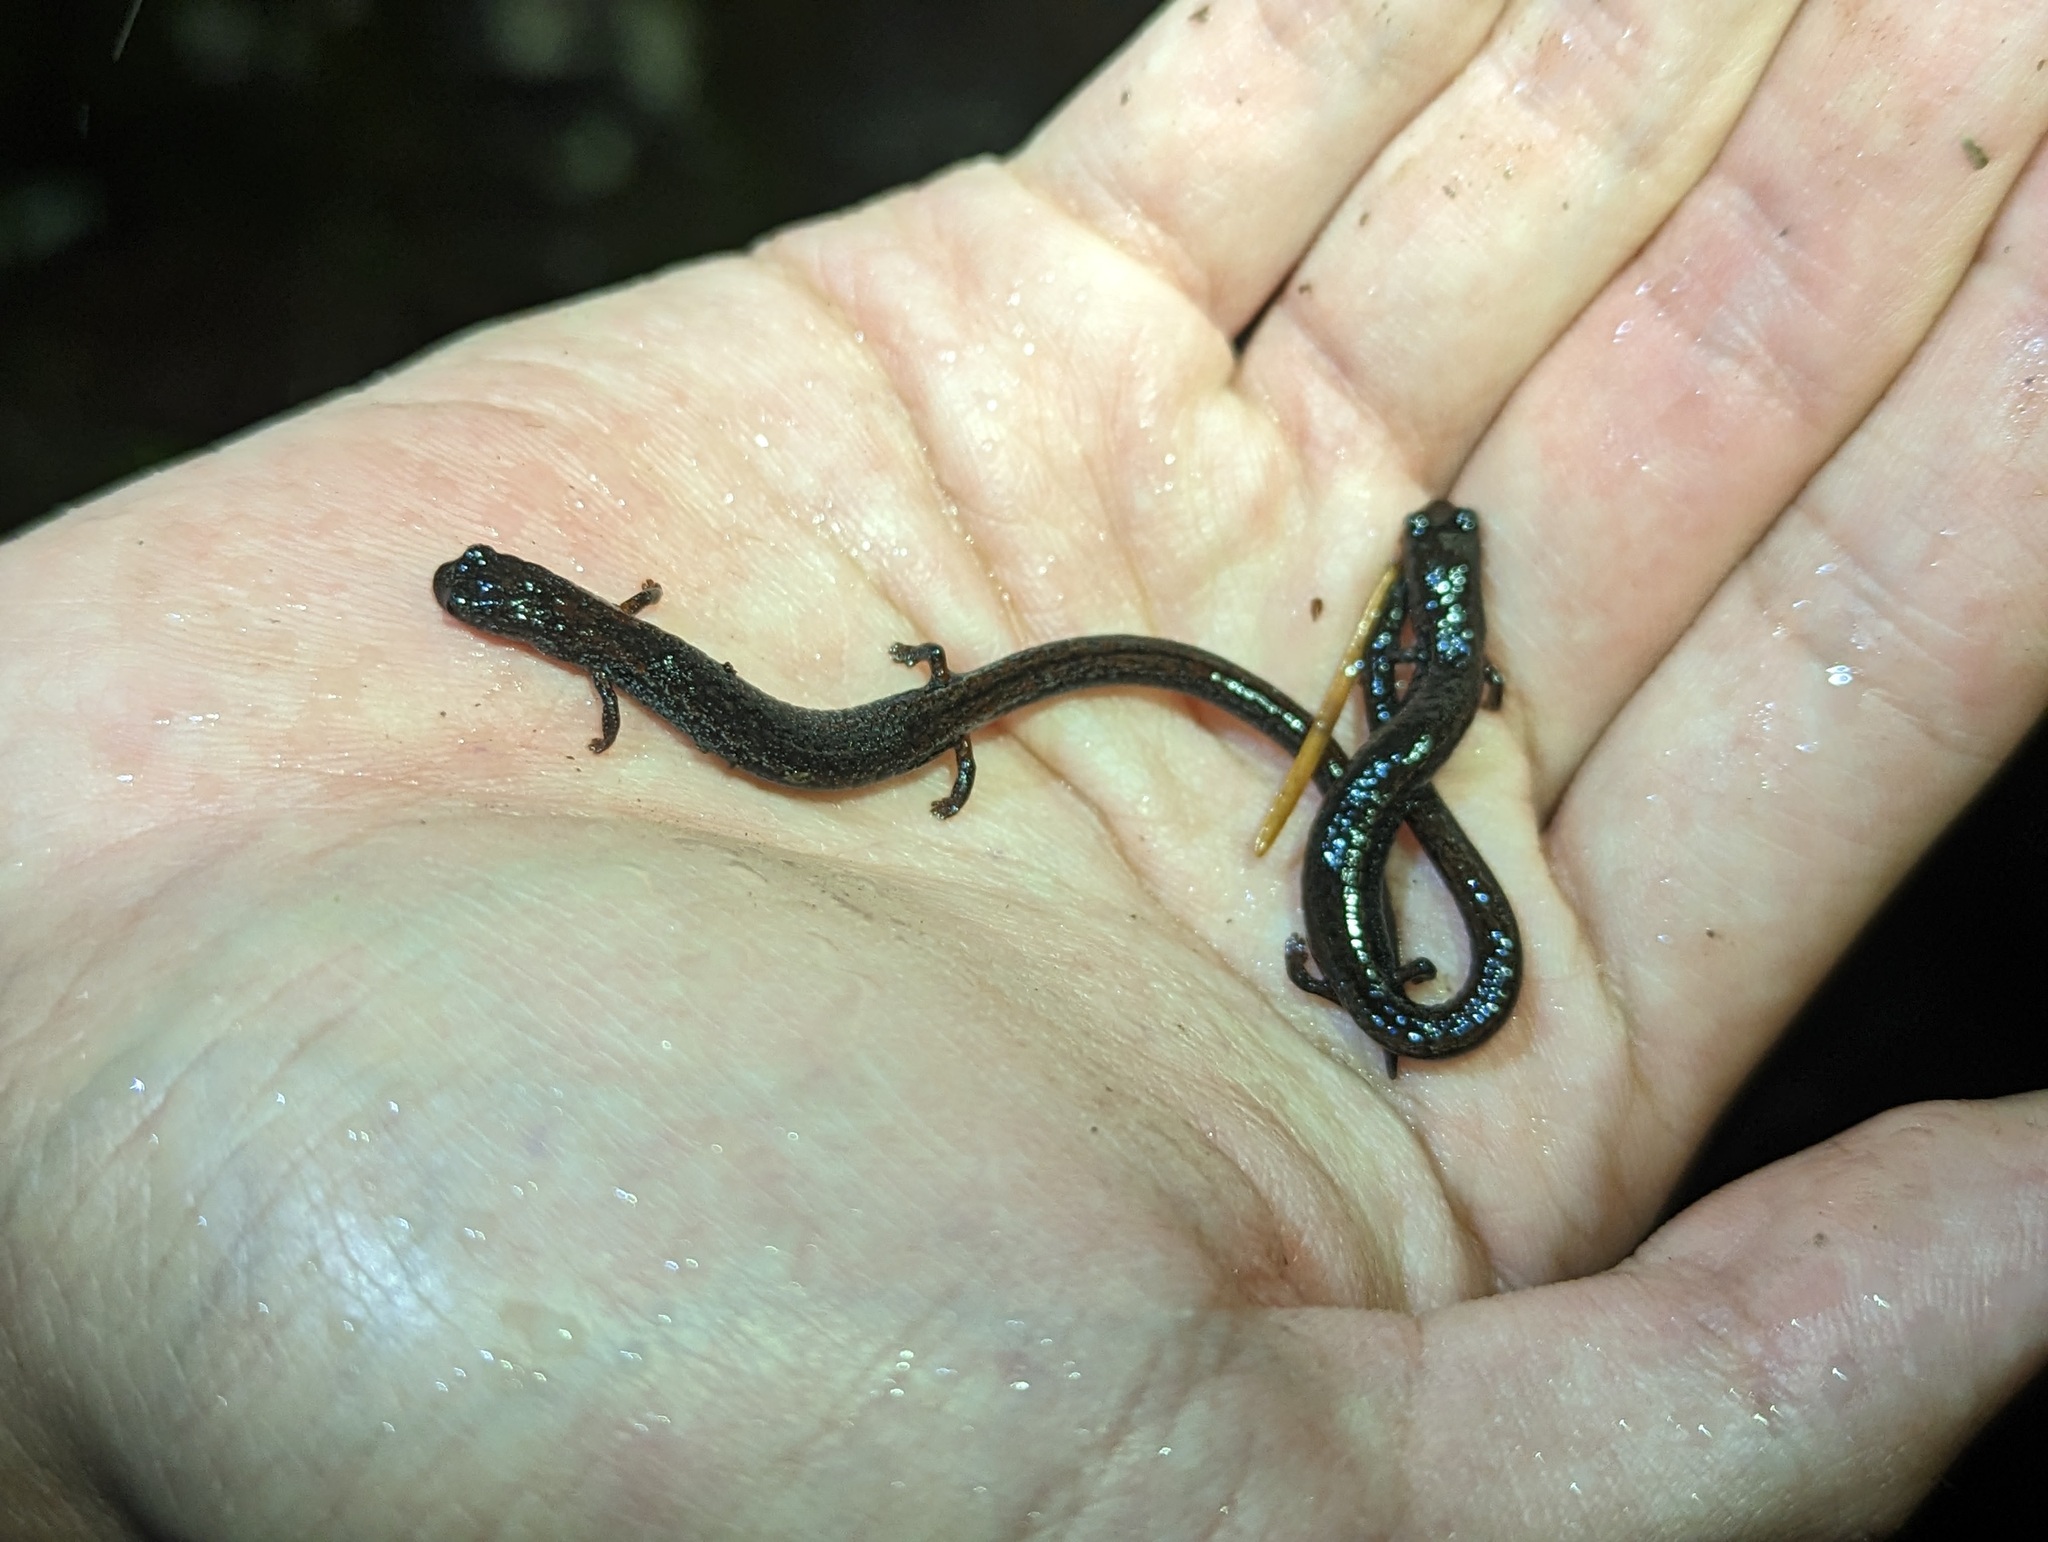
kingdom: Animalia
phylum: Chordata
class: Amphibia
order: Caudata
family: Plethodontidae
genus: Batrachoseps
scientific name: Batrachoseps attenuatus
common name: California slender salamander
